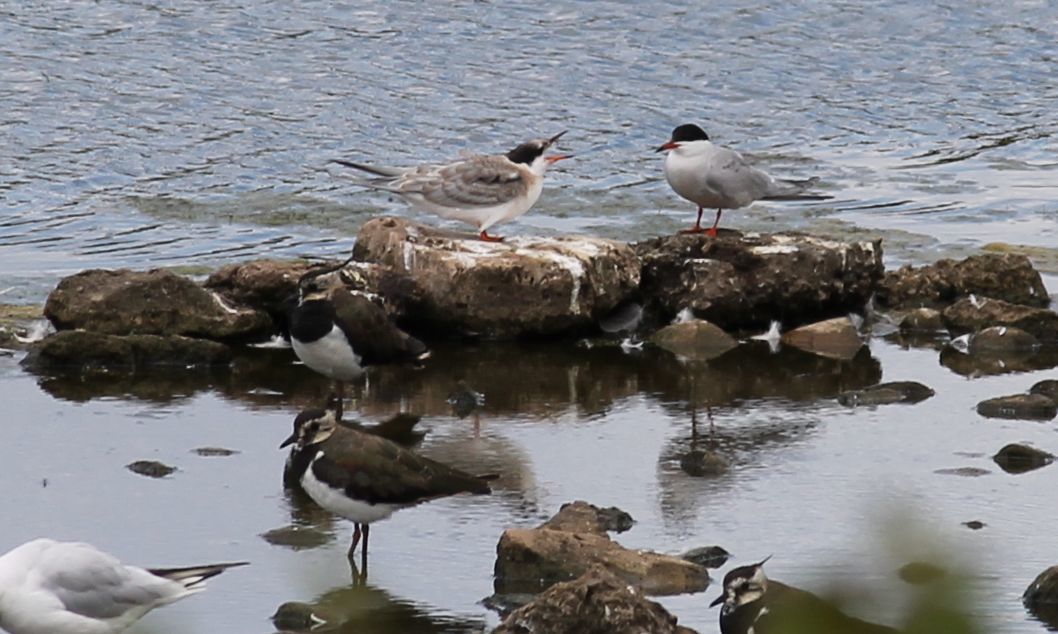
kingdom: Animalia
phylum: Chordata
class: Aves
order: Charadriiformes
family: Laridae
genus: Sterna
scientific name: Sterna hirundo
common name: Common tern
